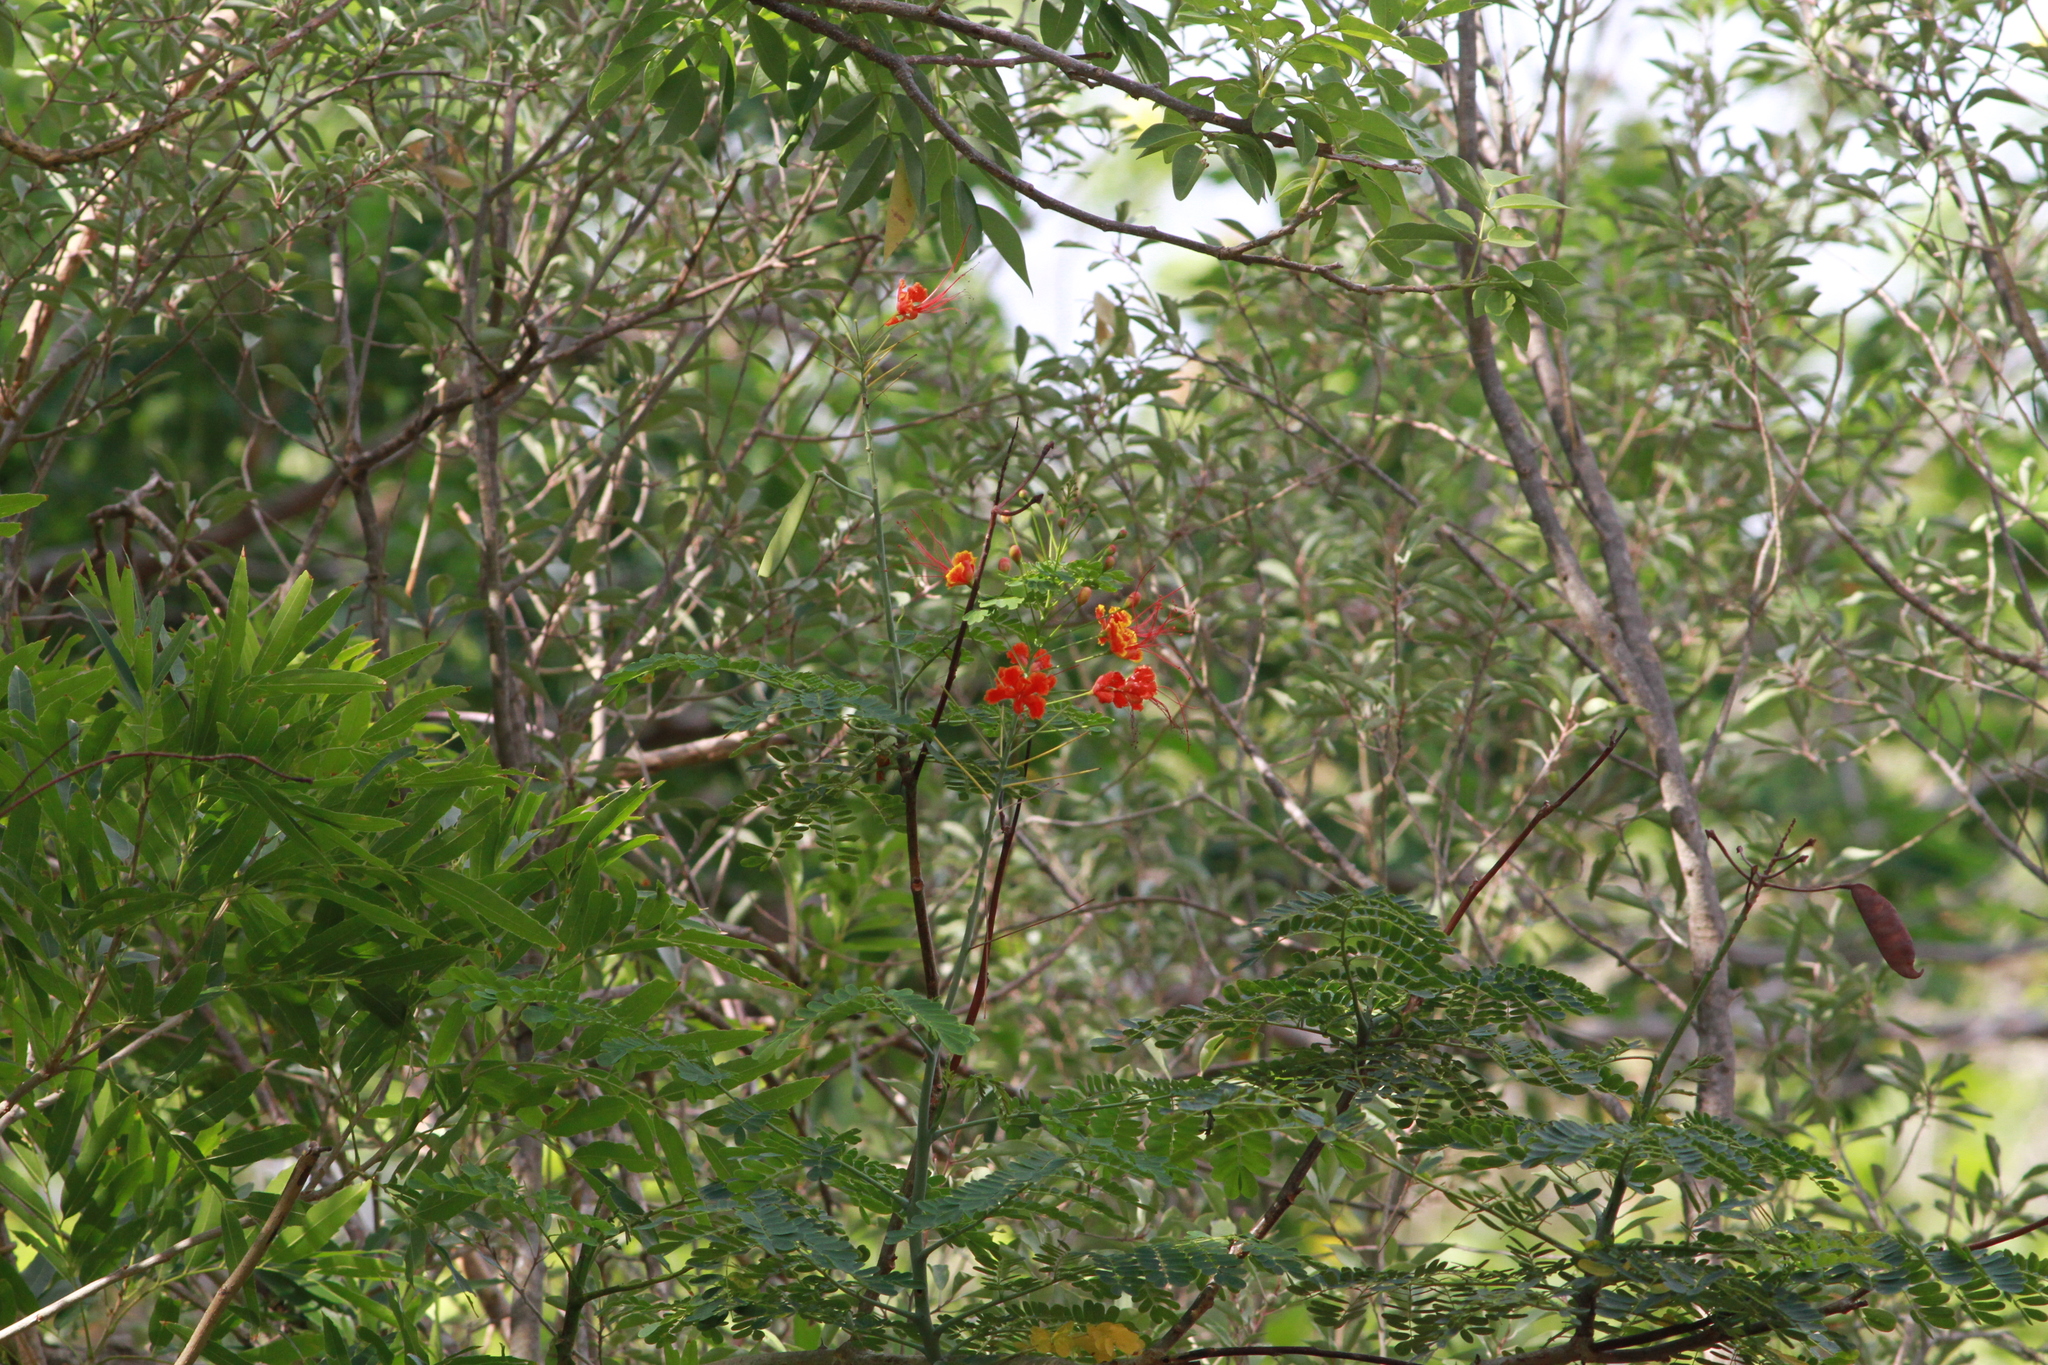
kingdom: Plantae
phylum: Tracheophyta
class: Magnoliopsida
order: Fabales
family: Fabaceae
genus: Caesalpinia
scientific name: Caesalpinia pulcherrima
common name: Pride-of-barbados
